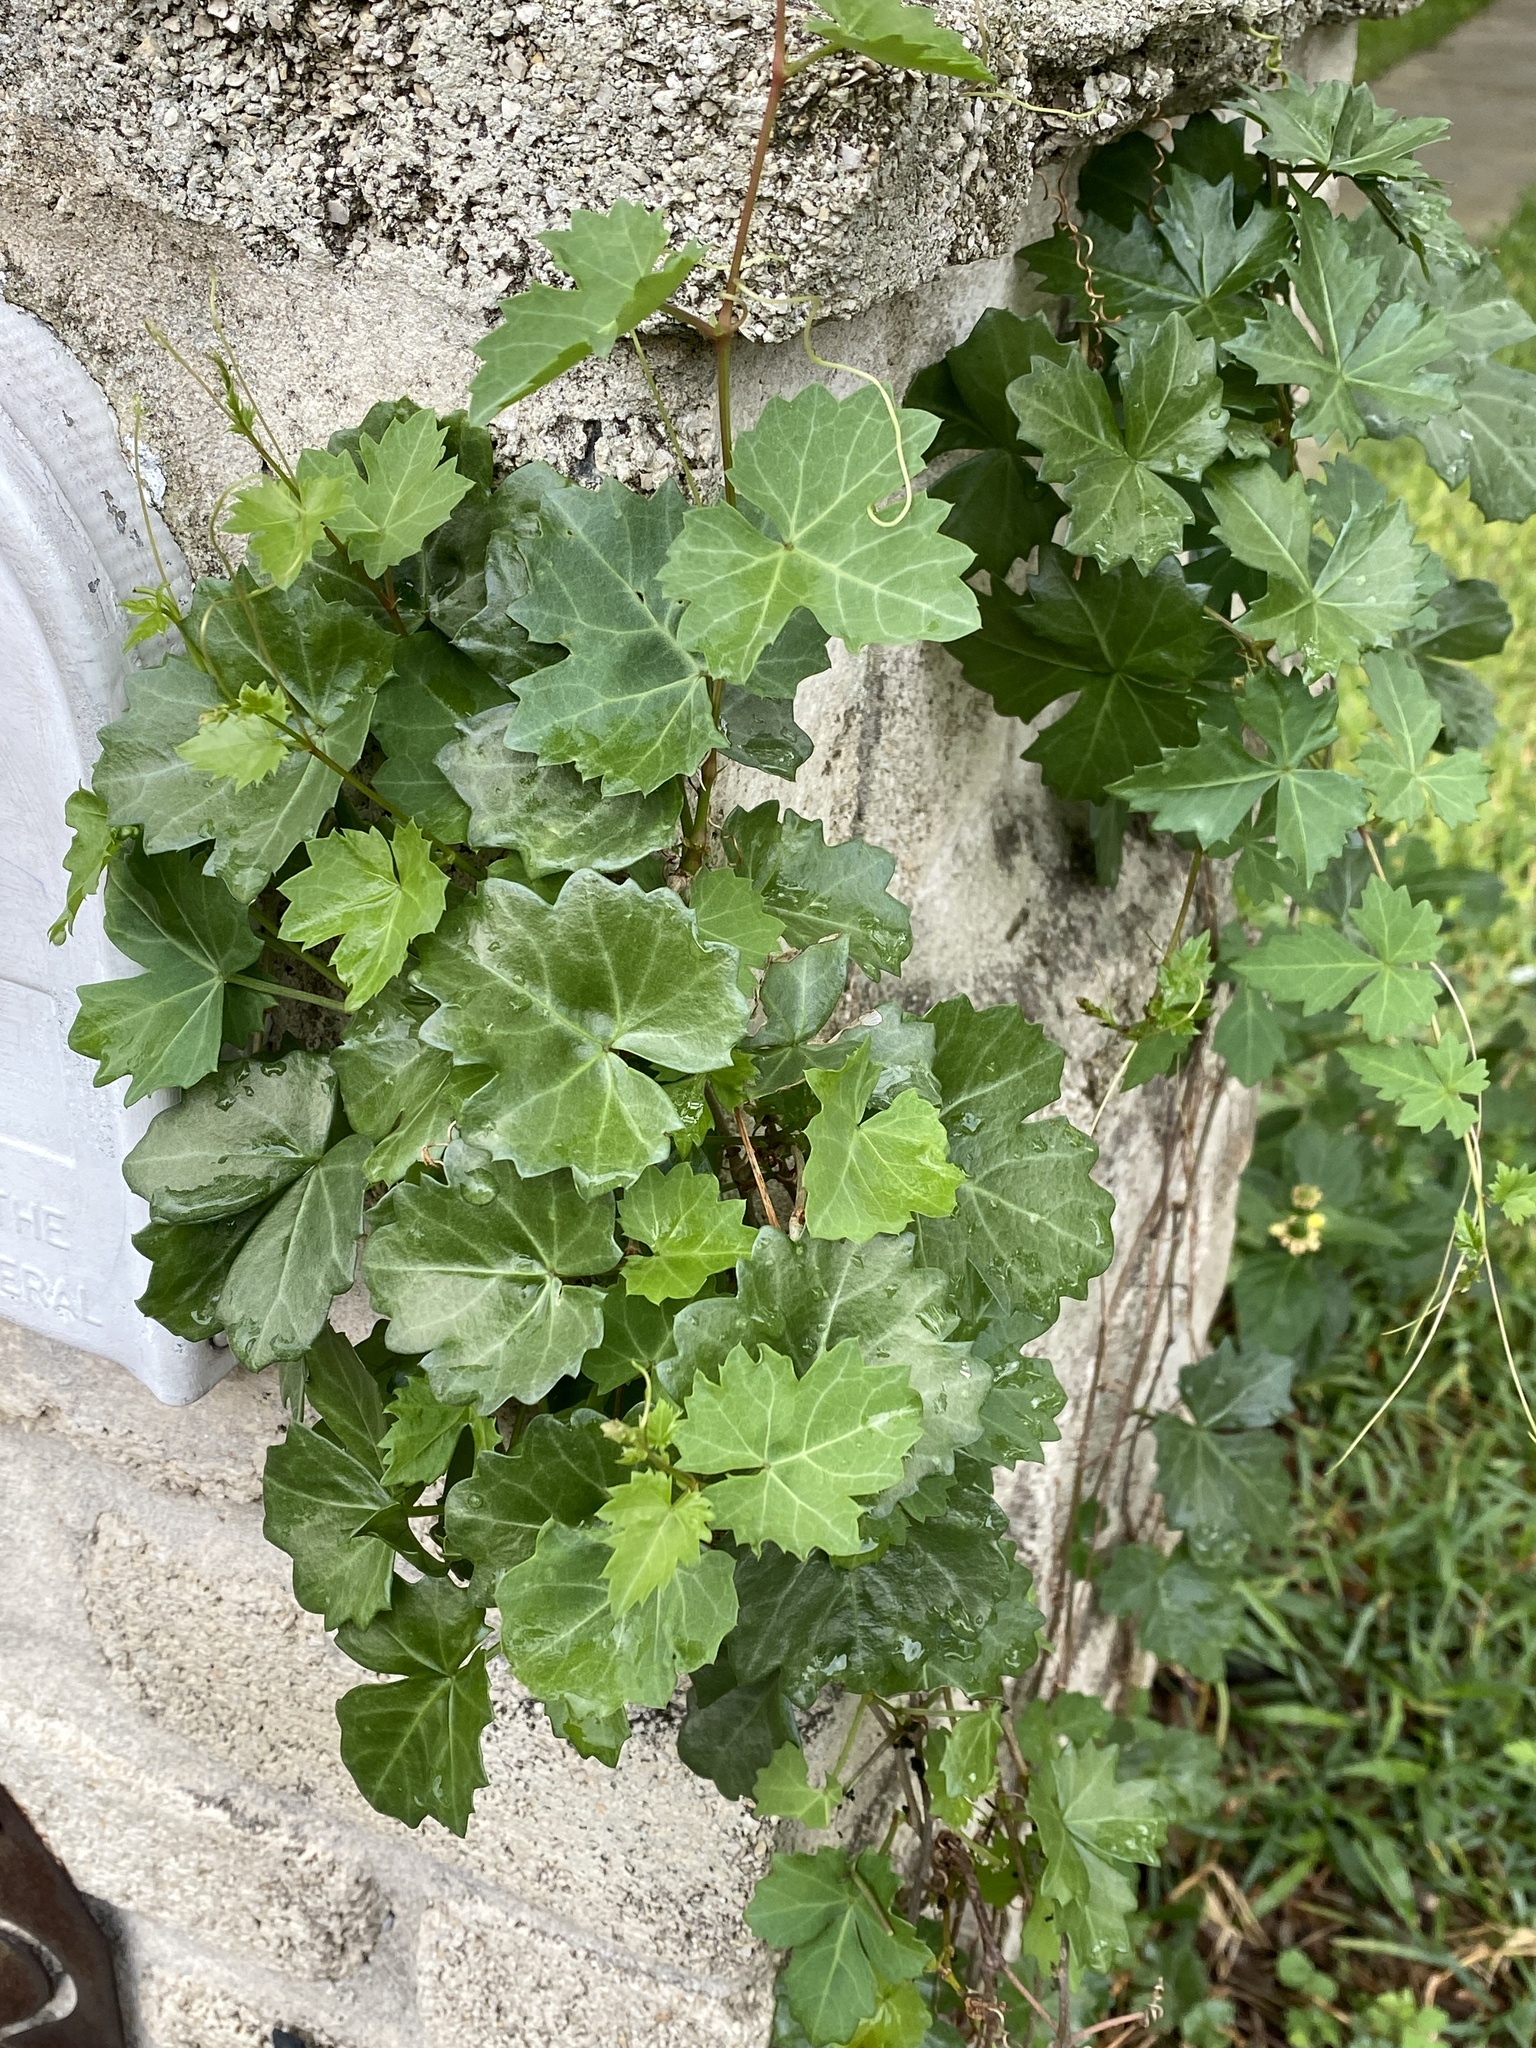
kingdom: Plantae
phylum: Tracheophyta
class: Magnoliopsida
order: Vitales
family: Vitaceae
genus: Cissus
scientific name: Cissus trifoliata
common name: Vine-sorrel
